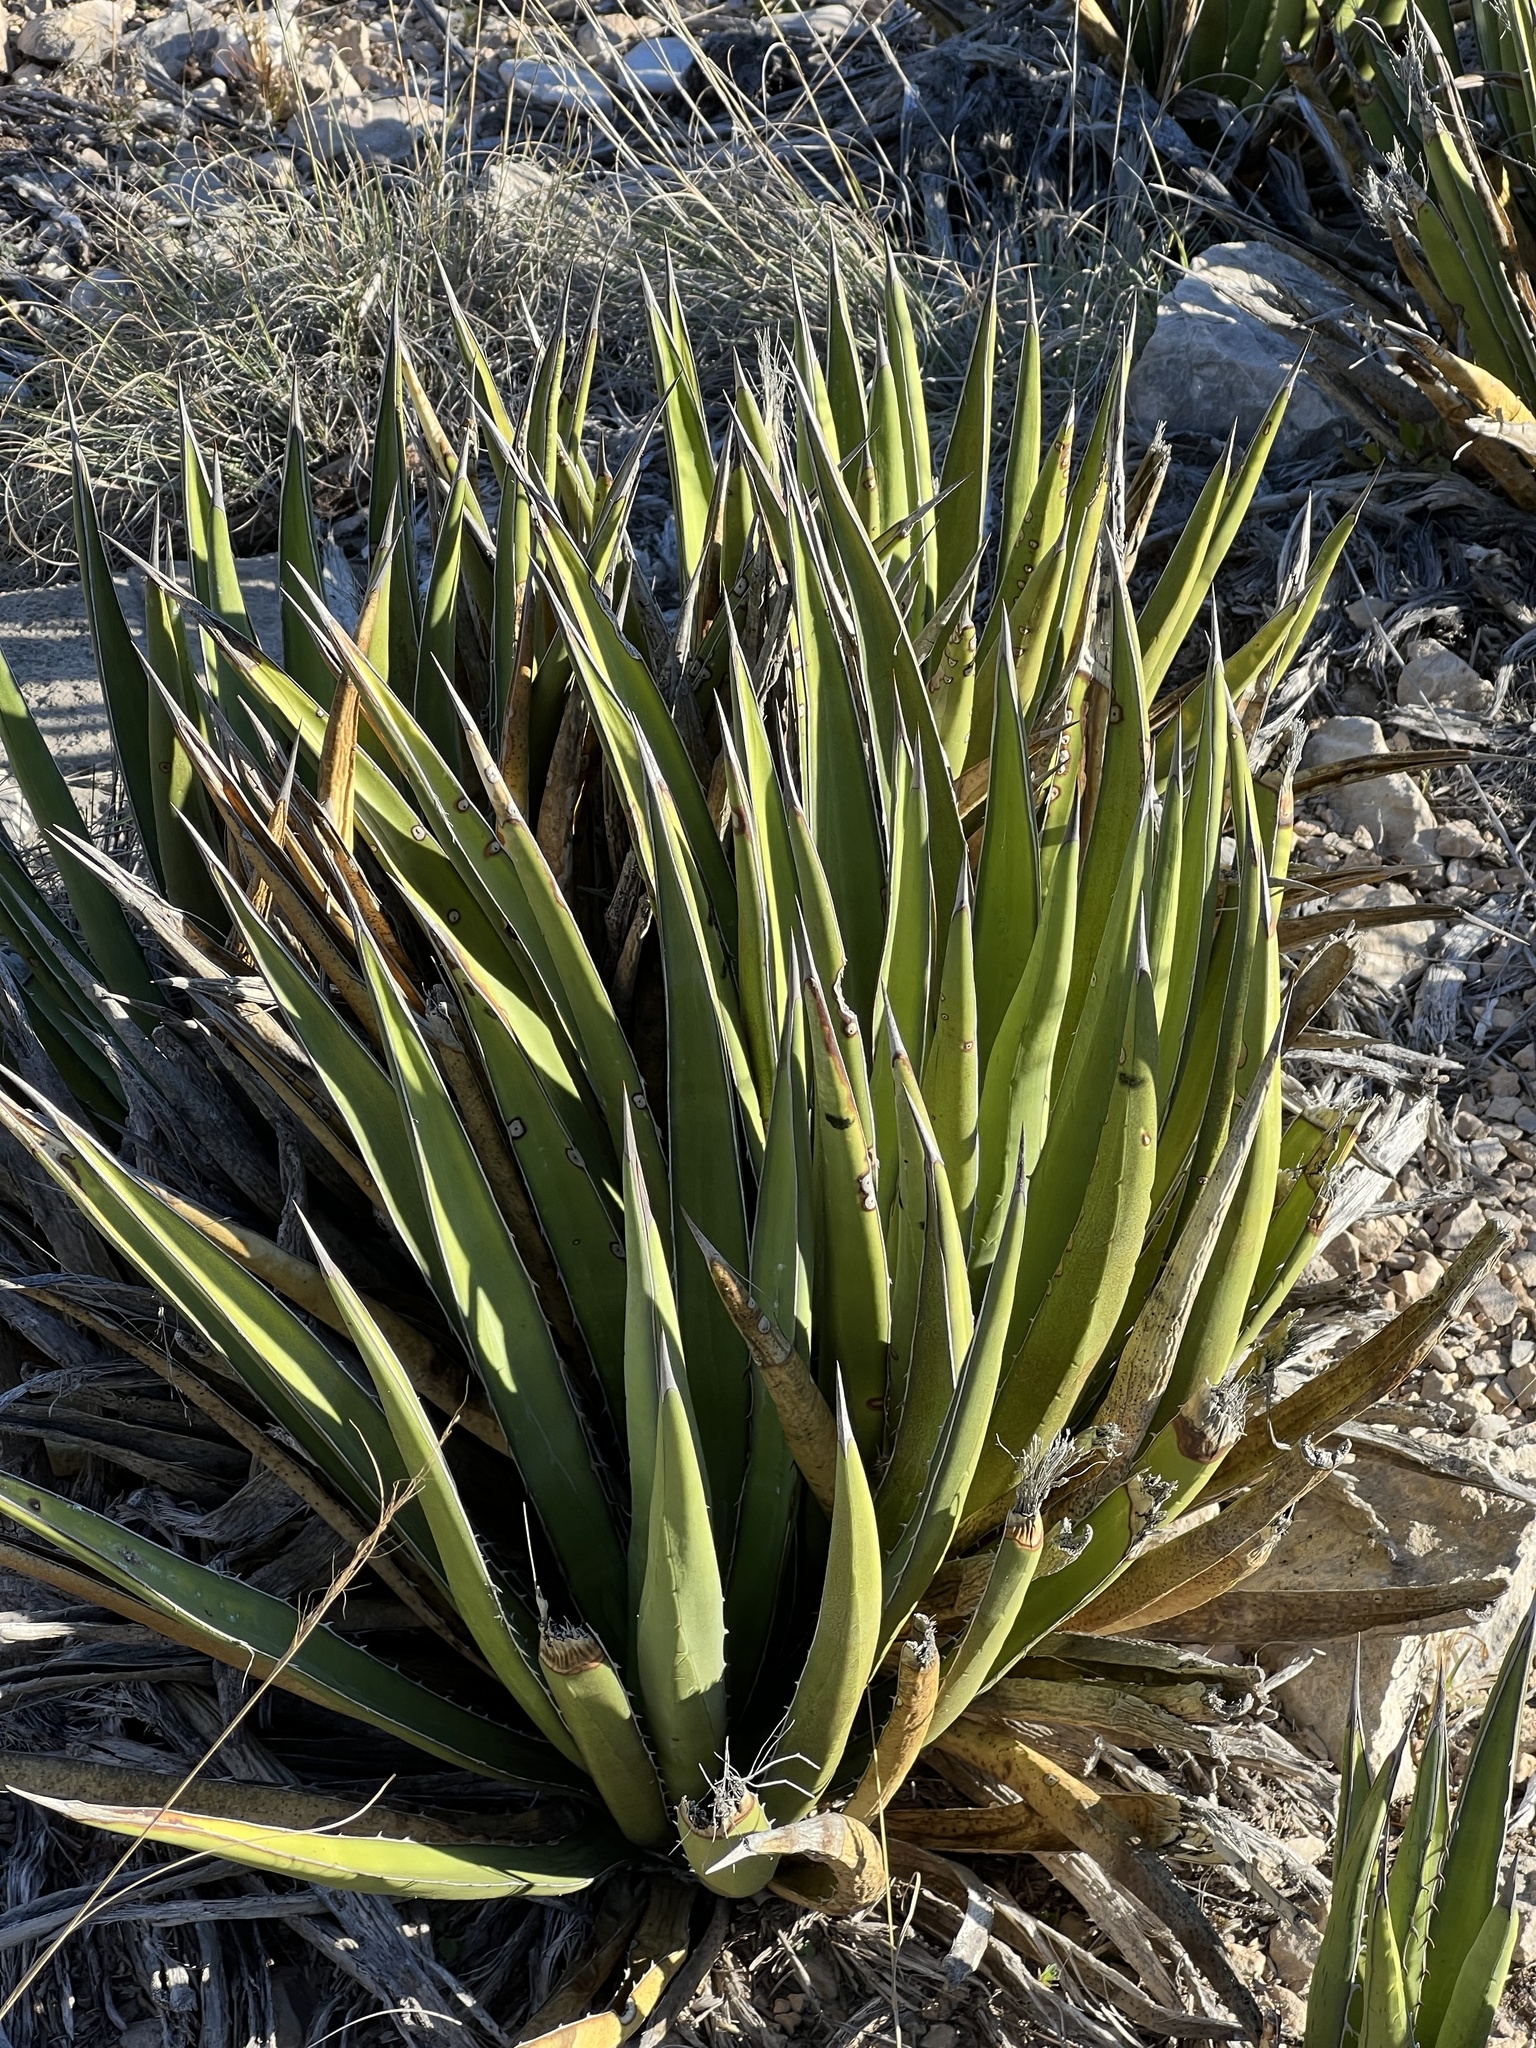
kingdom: Plantae
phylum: Tracheophyta
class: Liliopsida
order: Asparagales
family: Asparagaceae
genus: Agave
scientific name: Agave lechuguilla
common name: Lecheguilla agave
